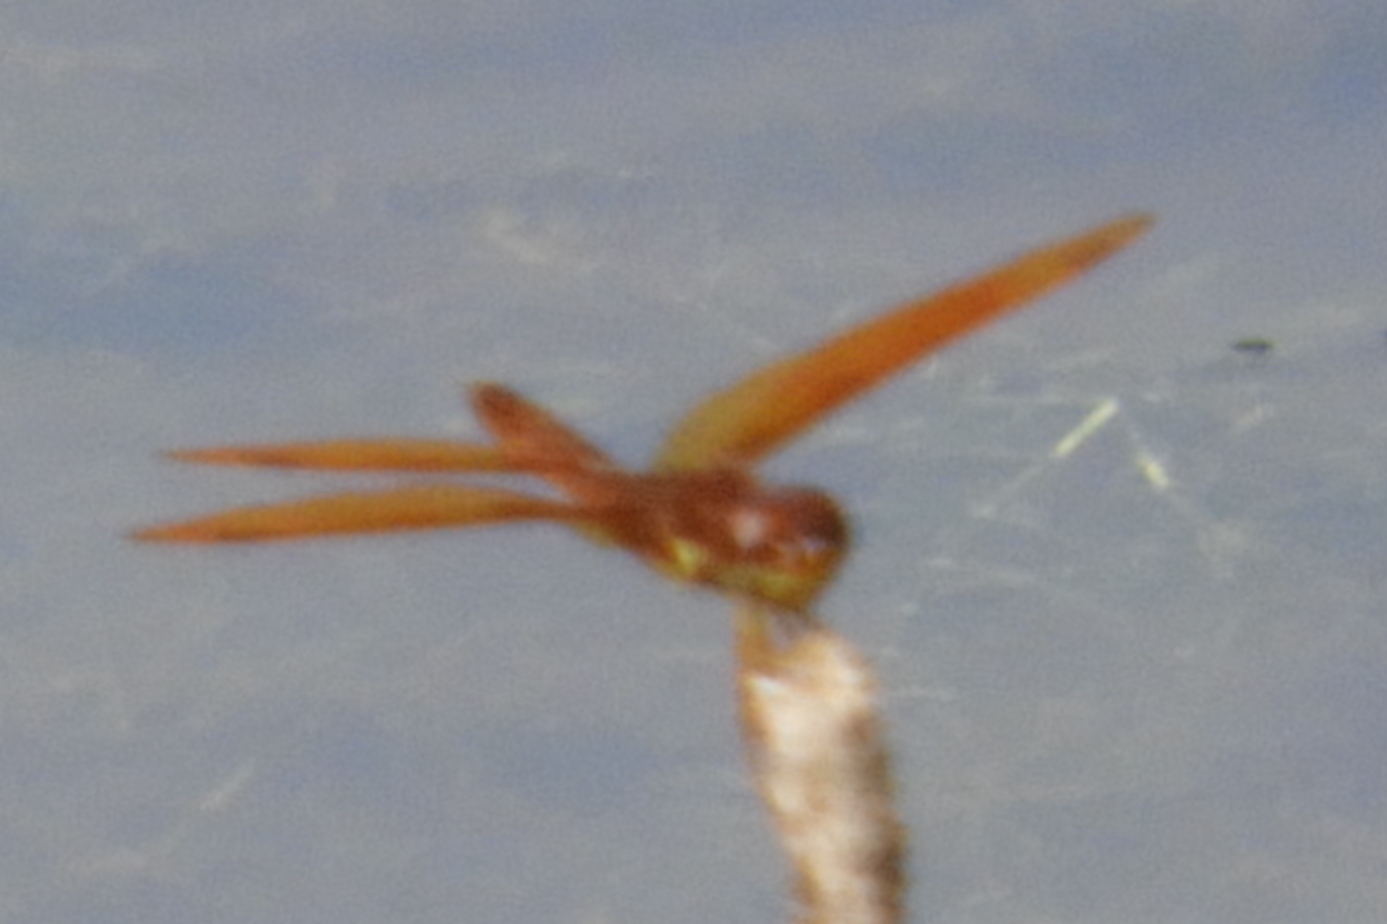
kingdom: Animalia
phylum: Arthropoda
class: Insecta
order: Odonata
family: Libellulidae
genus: Perithemis
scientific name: Perithemis tenera
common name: Eastern amberwing
